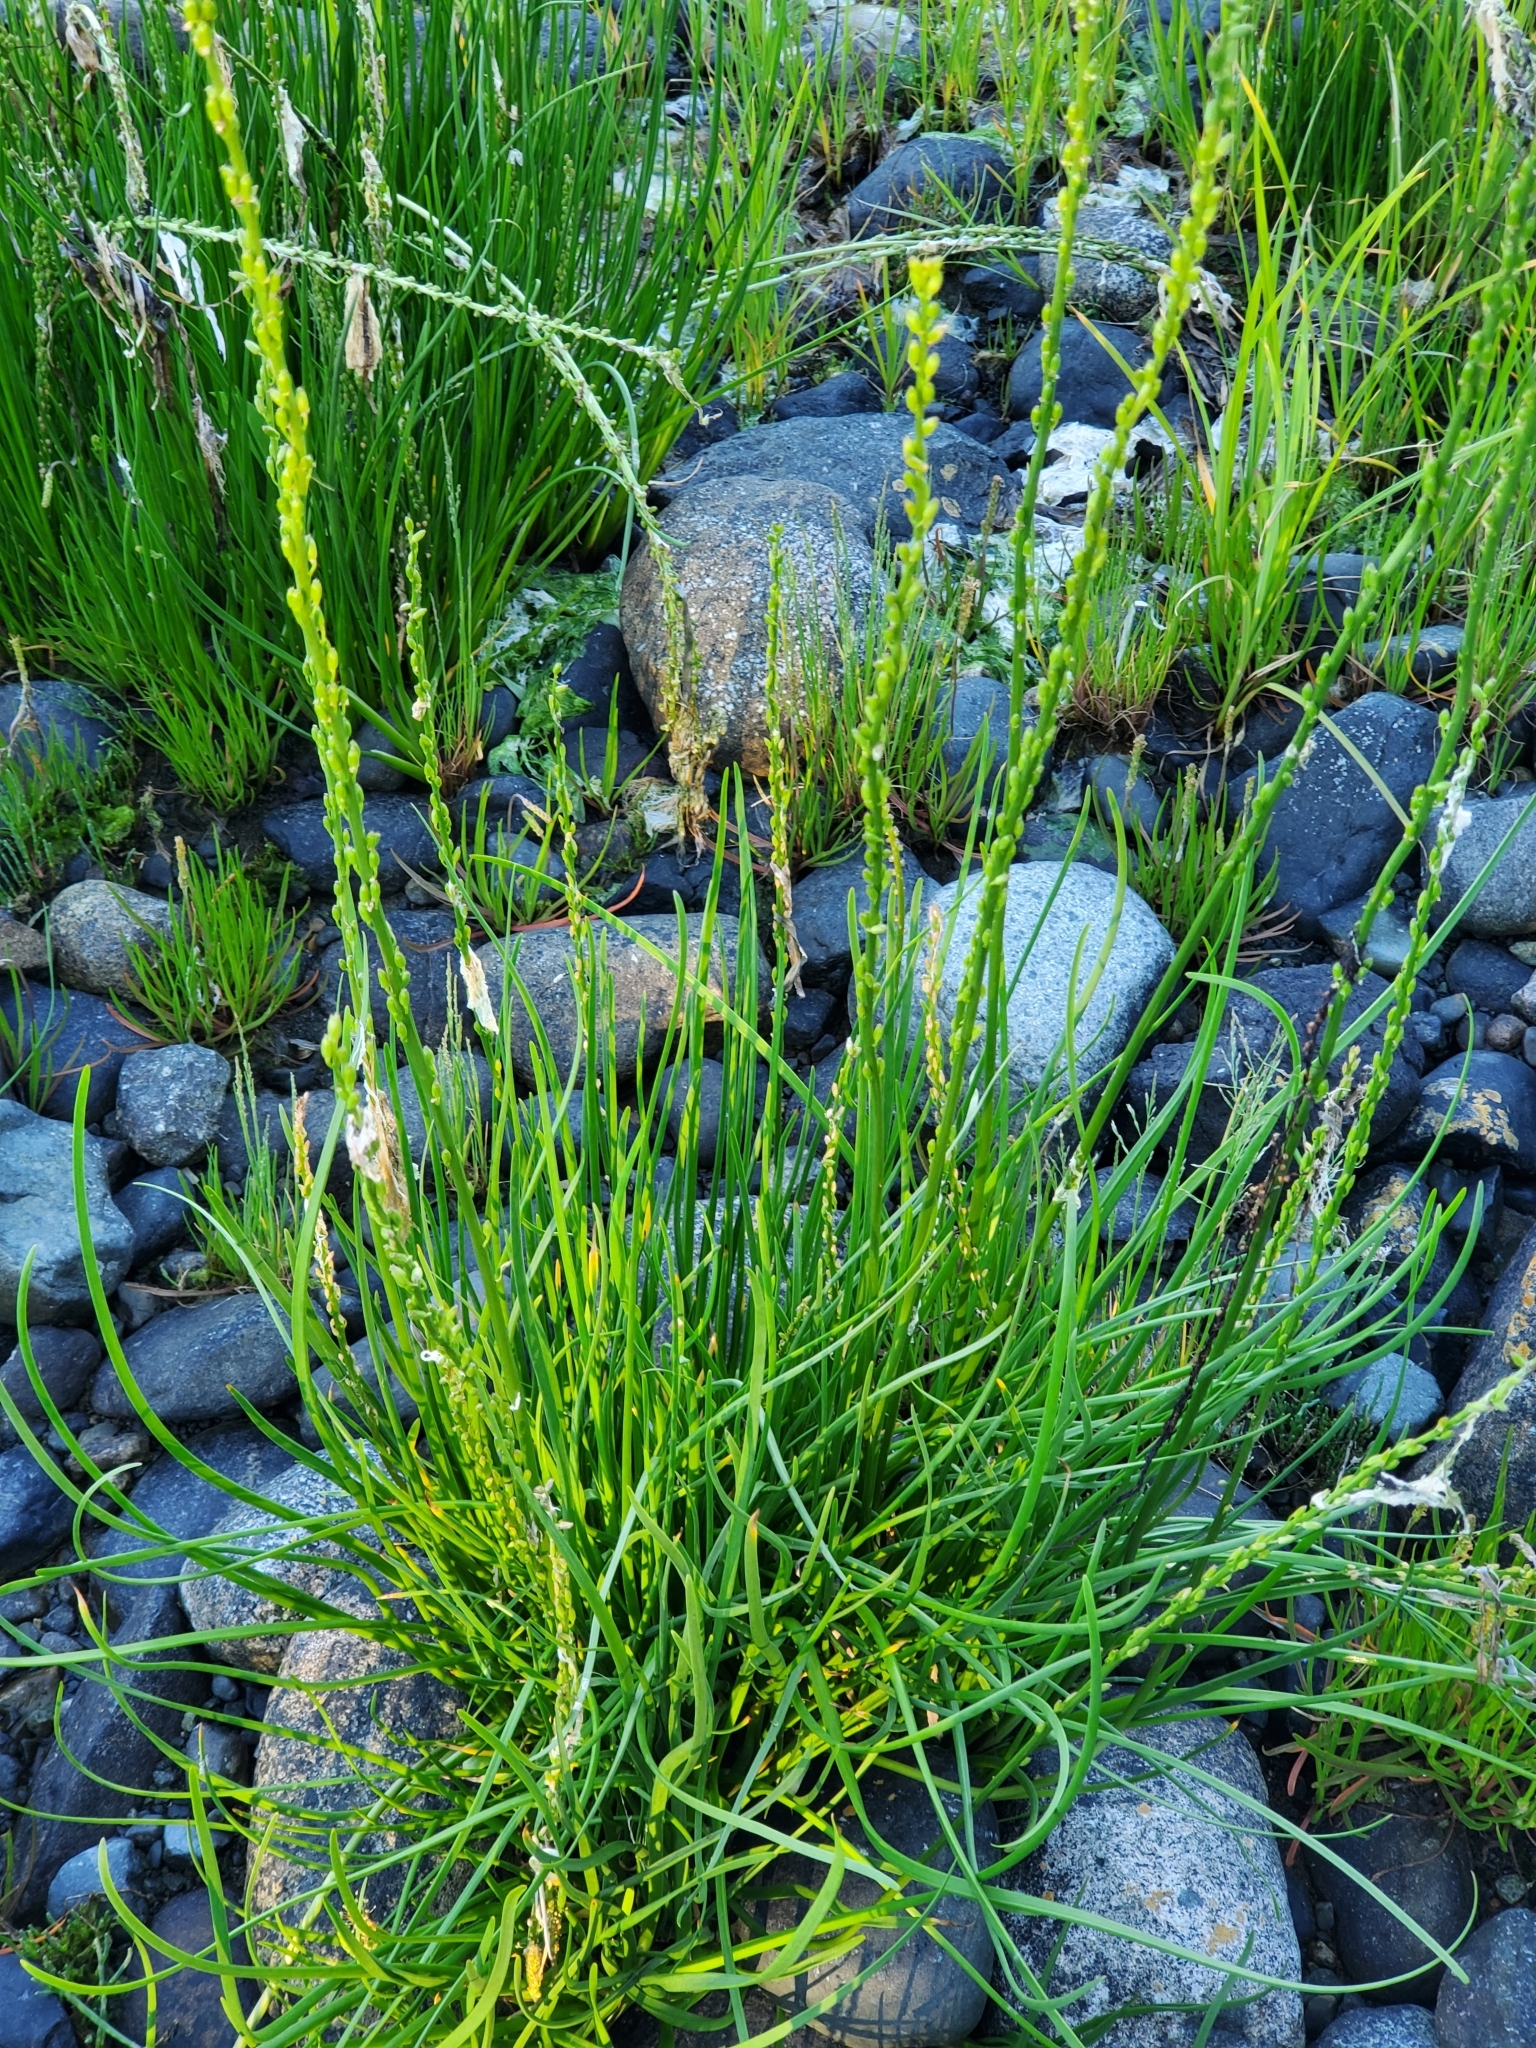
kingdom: Plantae
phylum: Tracheophyta
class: Liliopsida
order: Alismatales
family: Juncaginaceae
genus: Triglochin
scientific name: Triglochin maritima
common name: Sea arrowgrass
